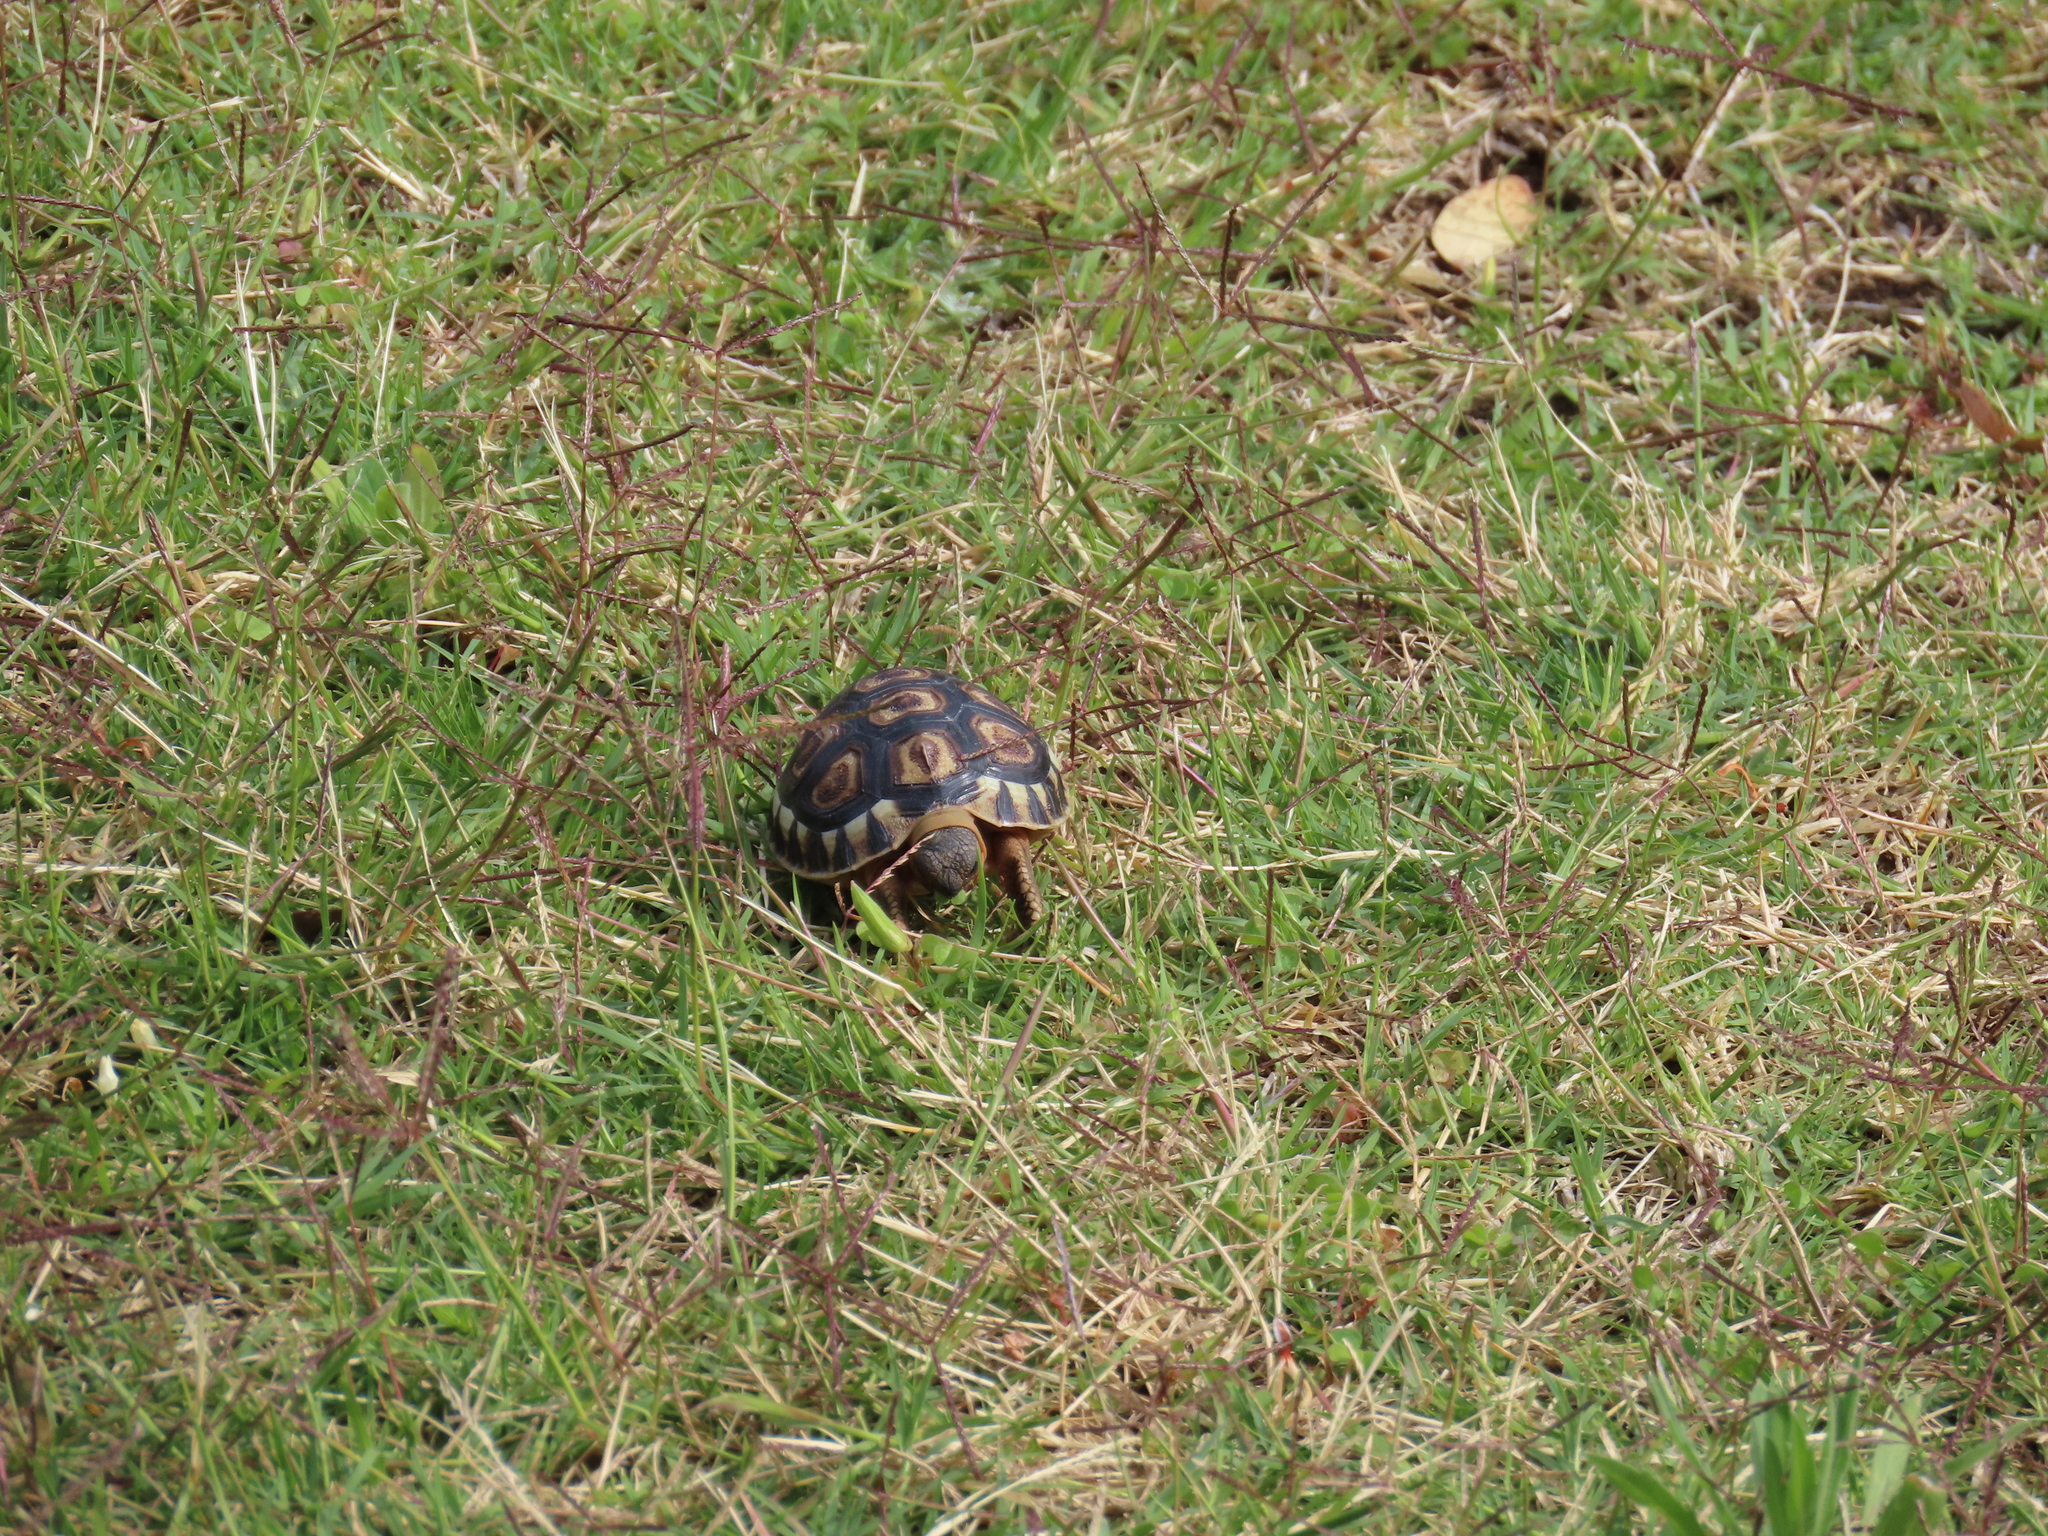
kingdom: Animalia
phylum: Chordata
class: Testudines
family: Testudinidae
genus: Chersina
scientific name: Chersina angulata
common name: South african bowsprit tortoise
